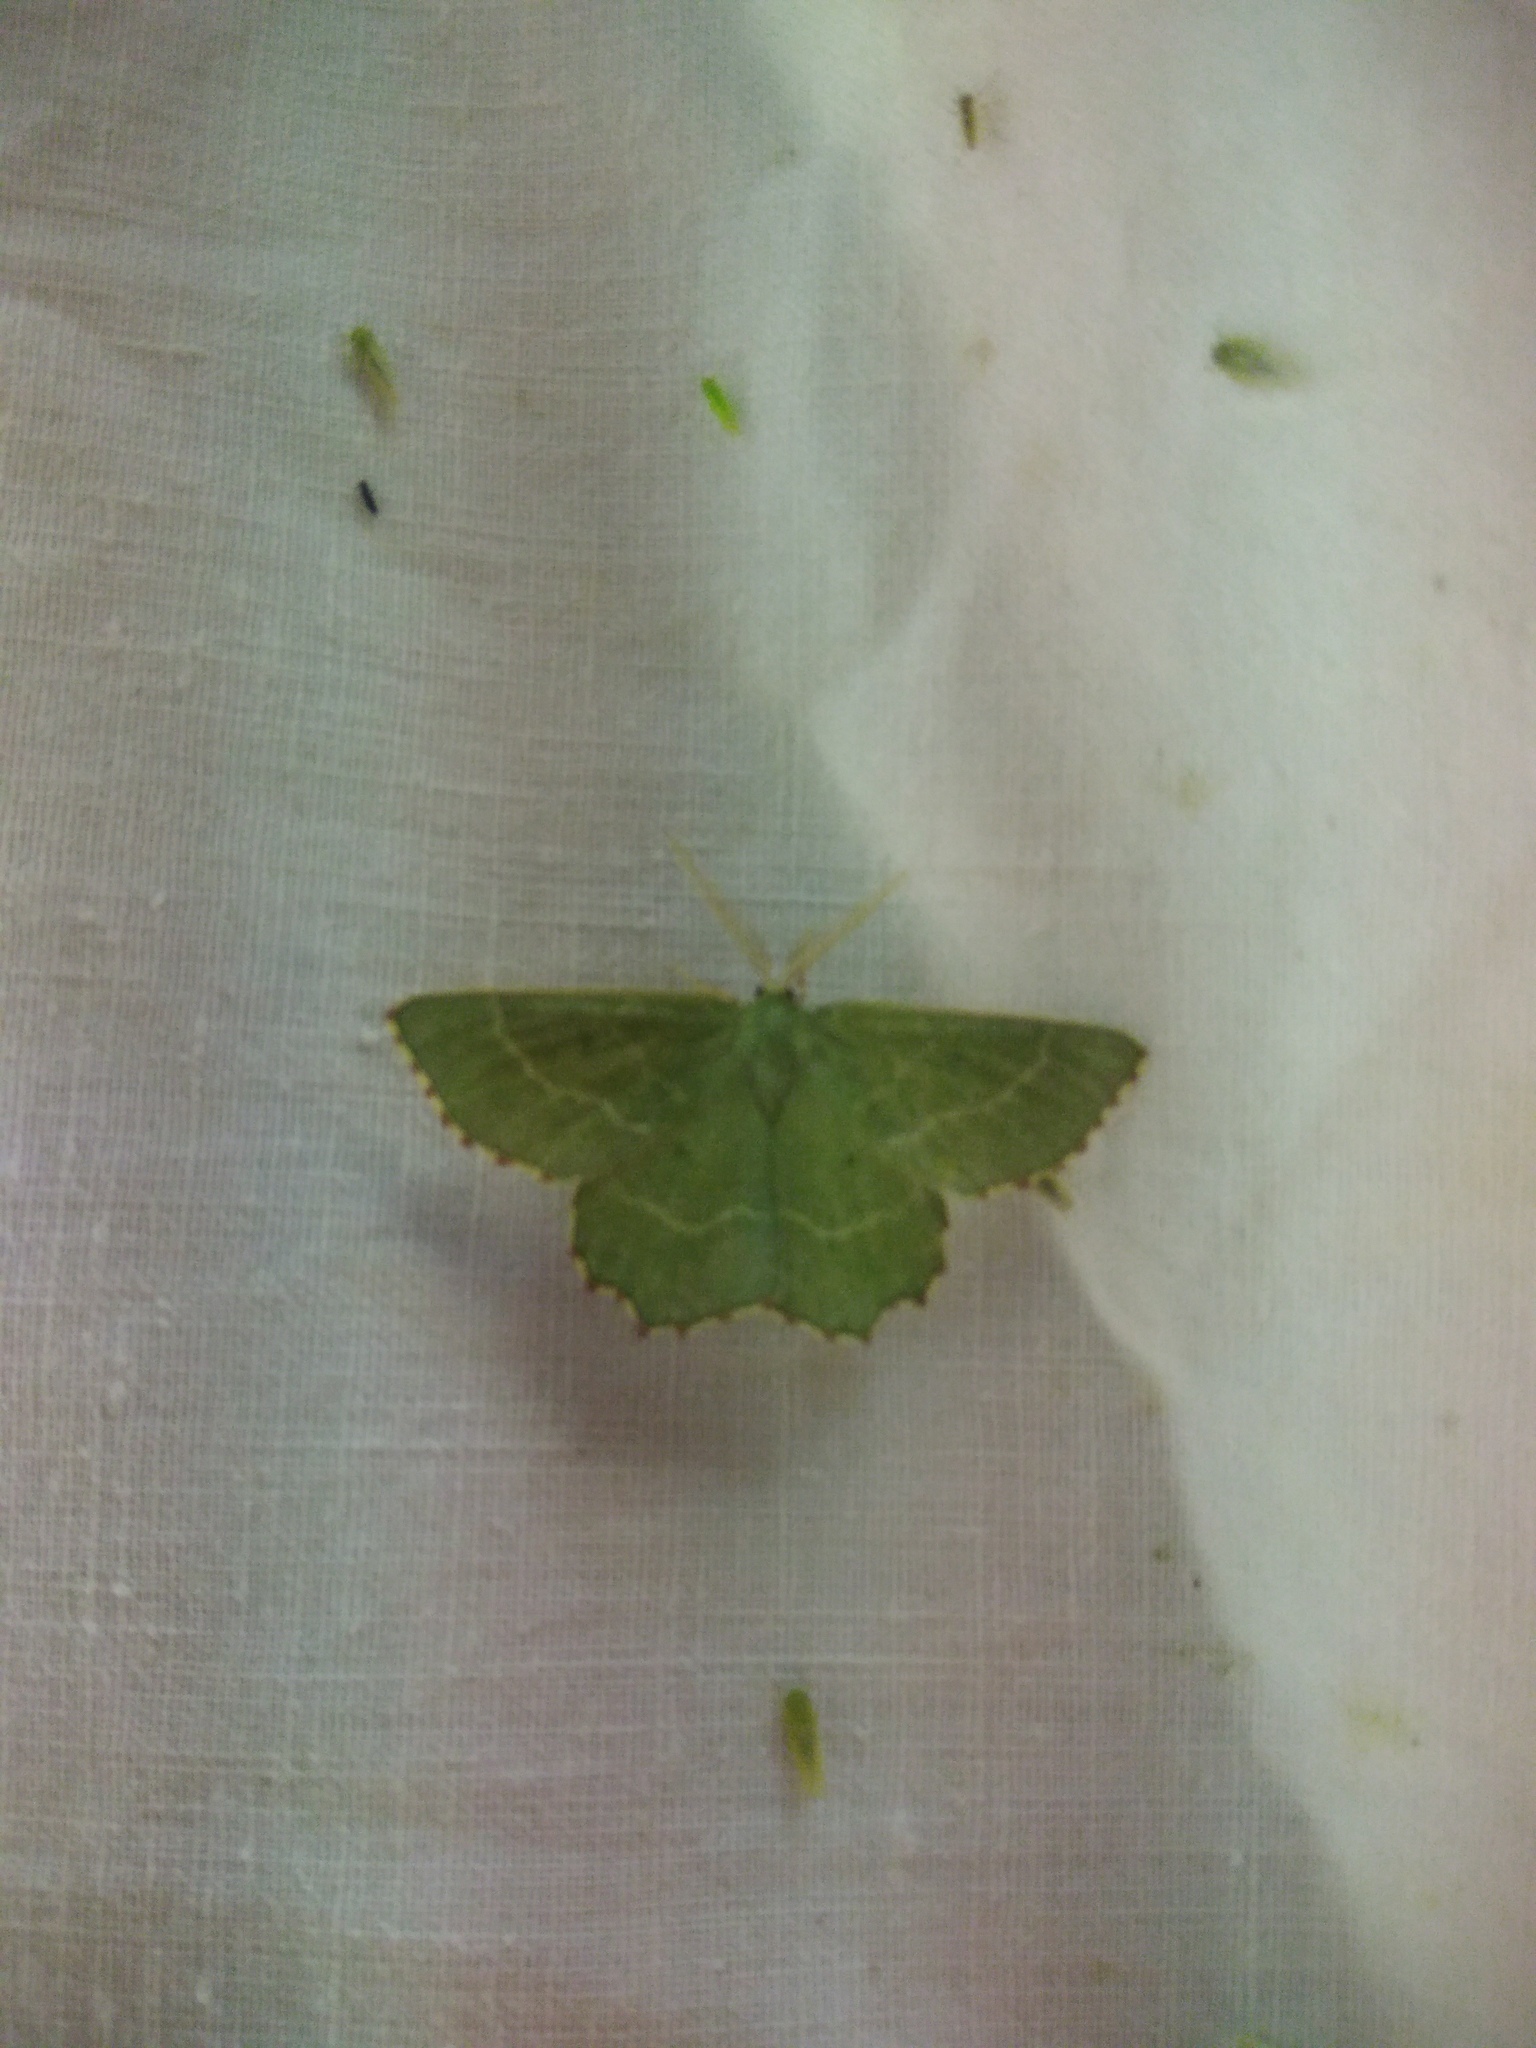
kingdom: Animalia
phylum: Arthropoda
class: Insecta
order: Lepidoptera
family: Geometridae
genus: Thalera
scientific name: Thalera fimbrialis
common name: Sussex emerald
